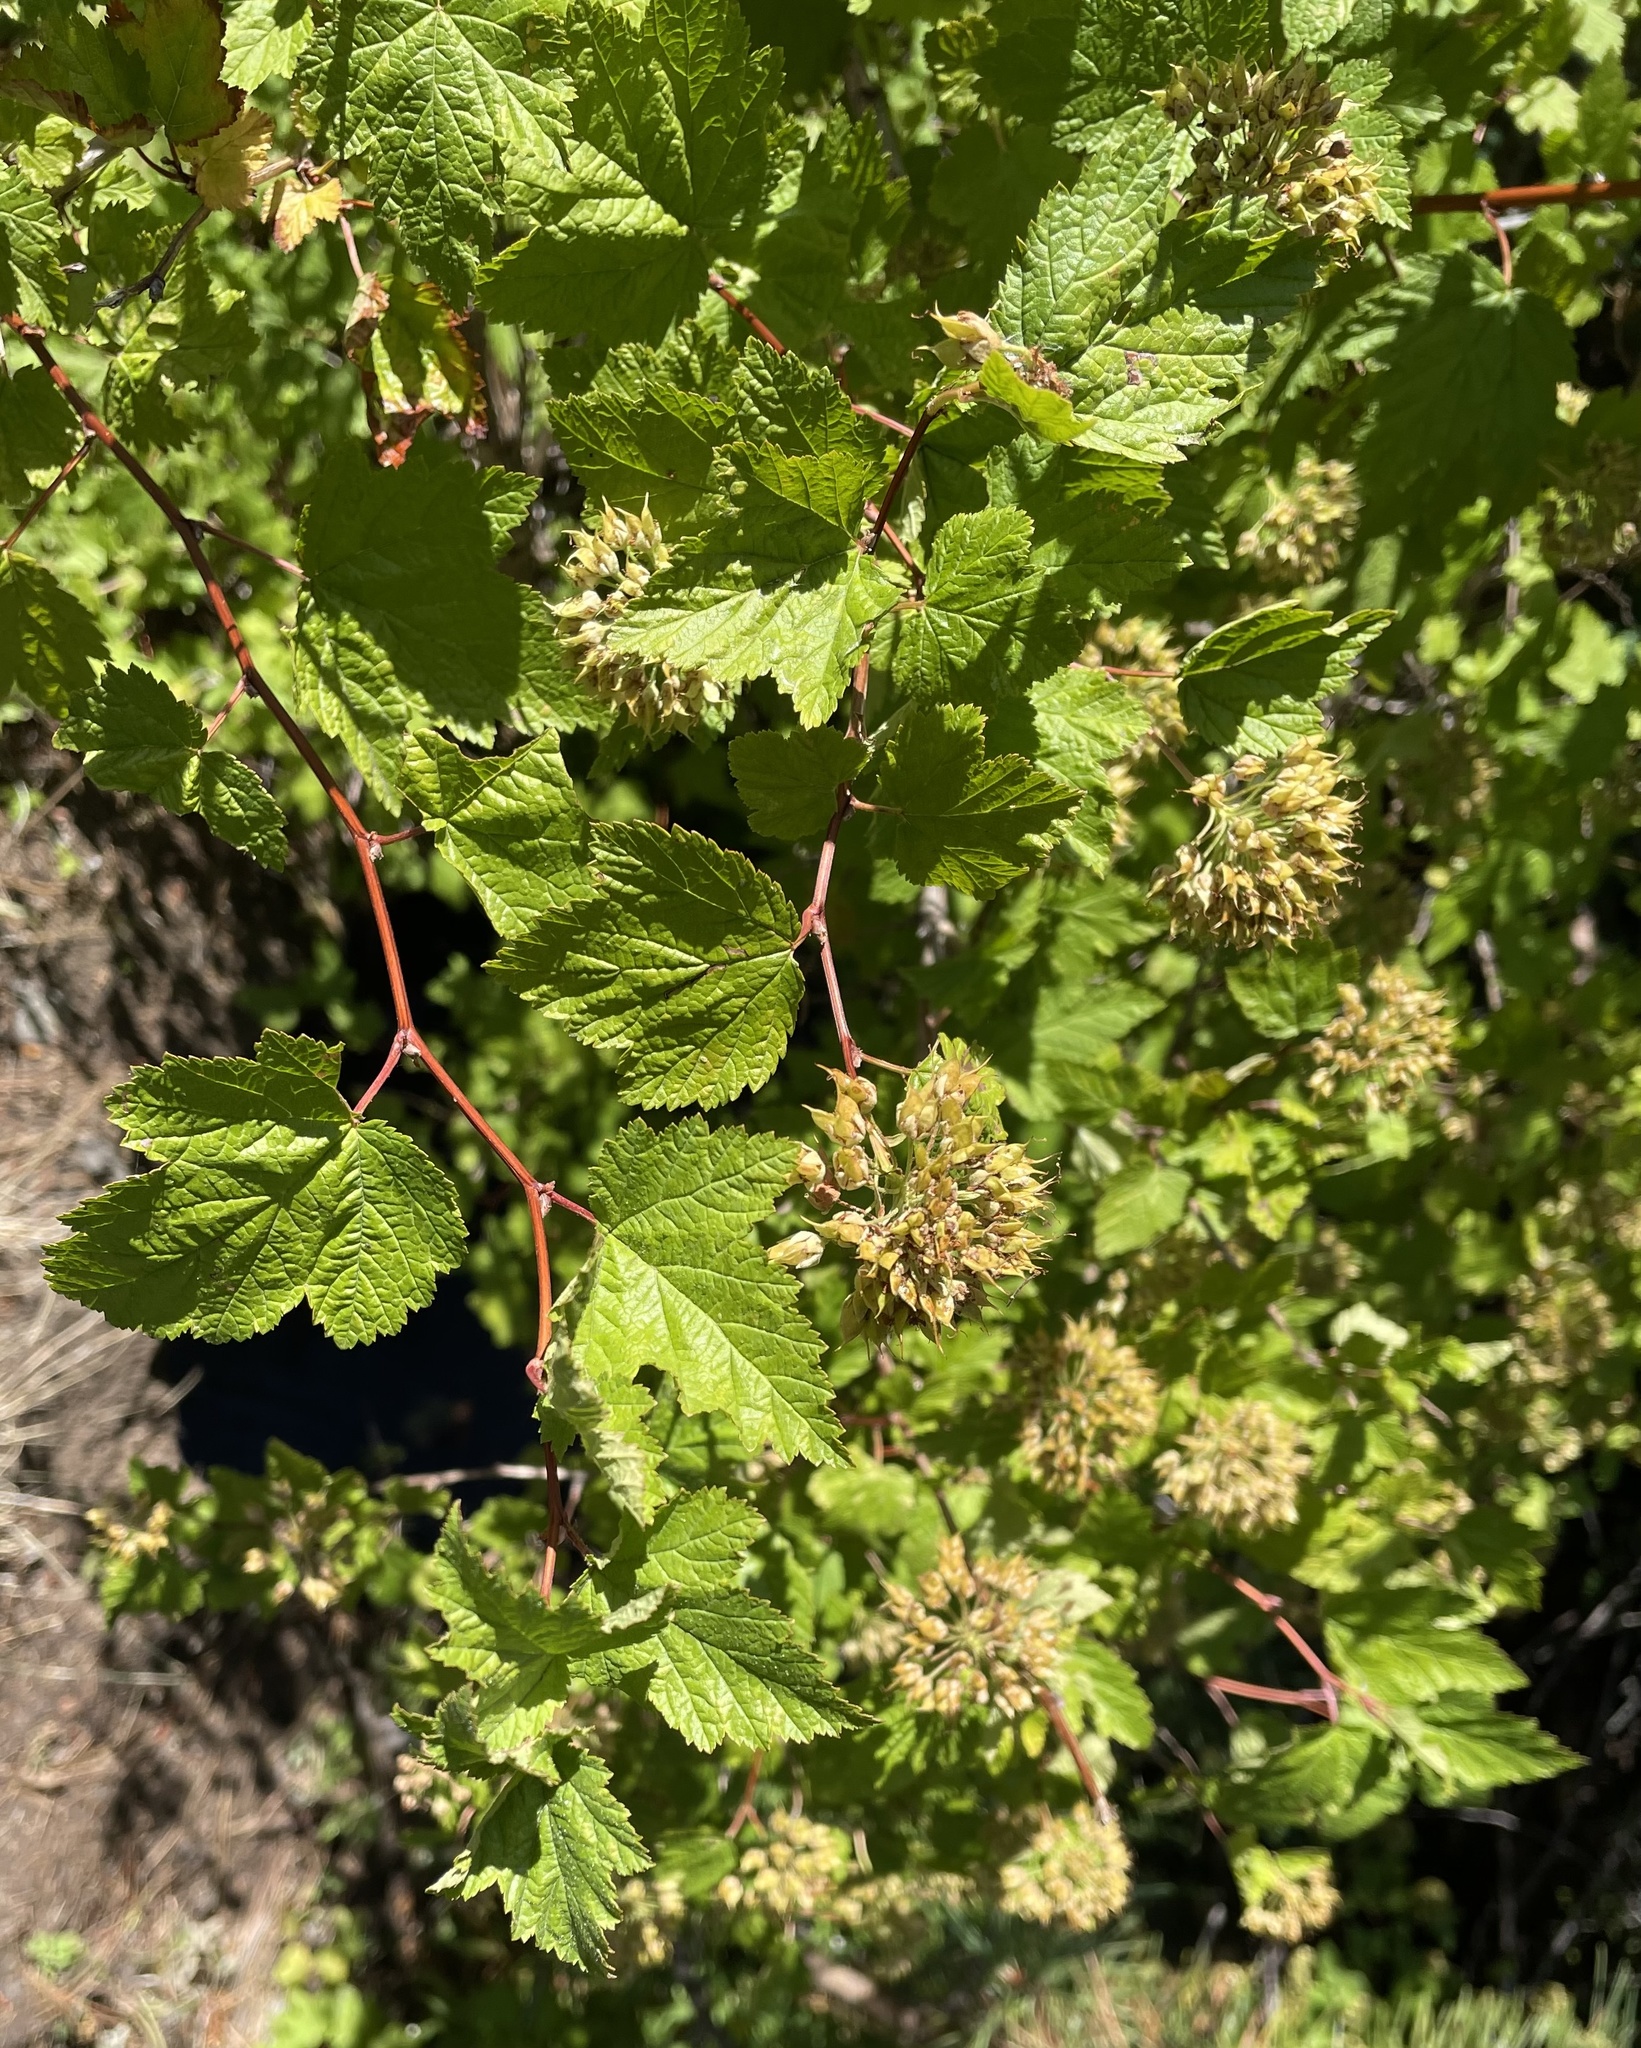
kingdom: Plantae
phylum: Tracheophyta
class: Magnoliopsida
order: Rosales
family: Rosaceae
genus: Physocarpus
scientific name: Physocarpus capitatus
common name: Pacific ninebark
